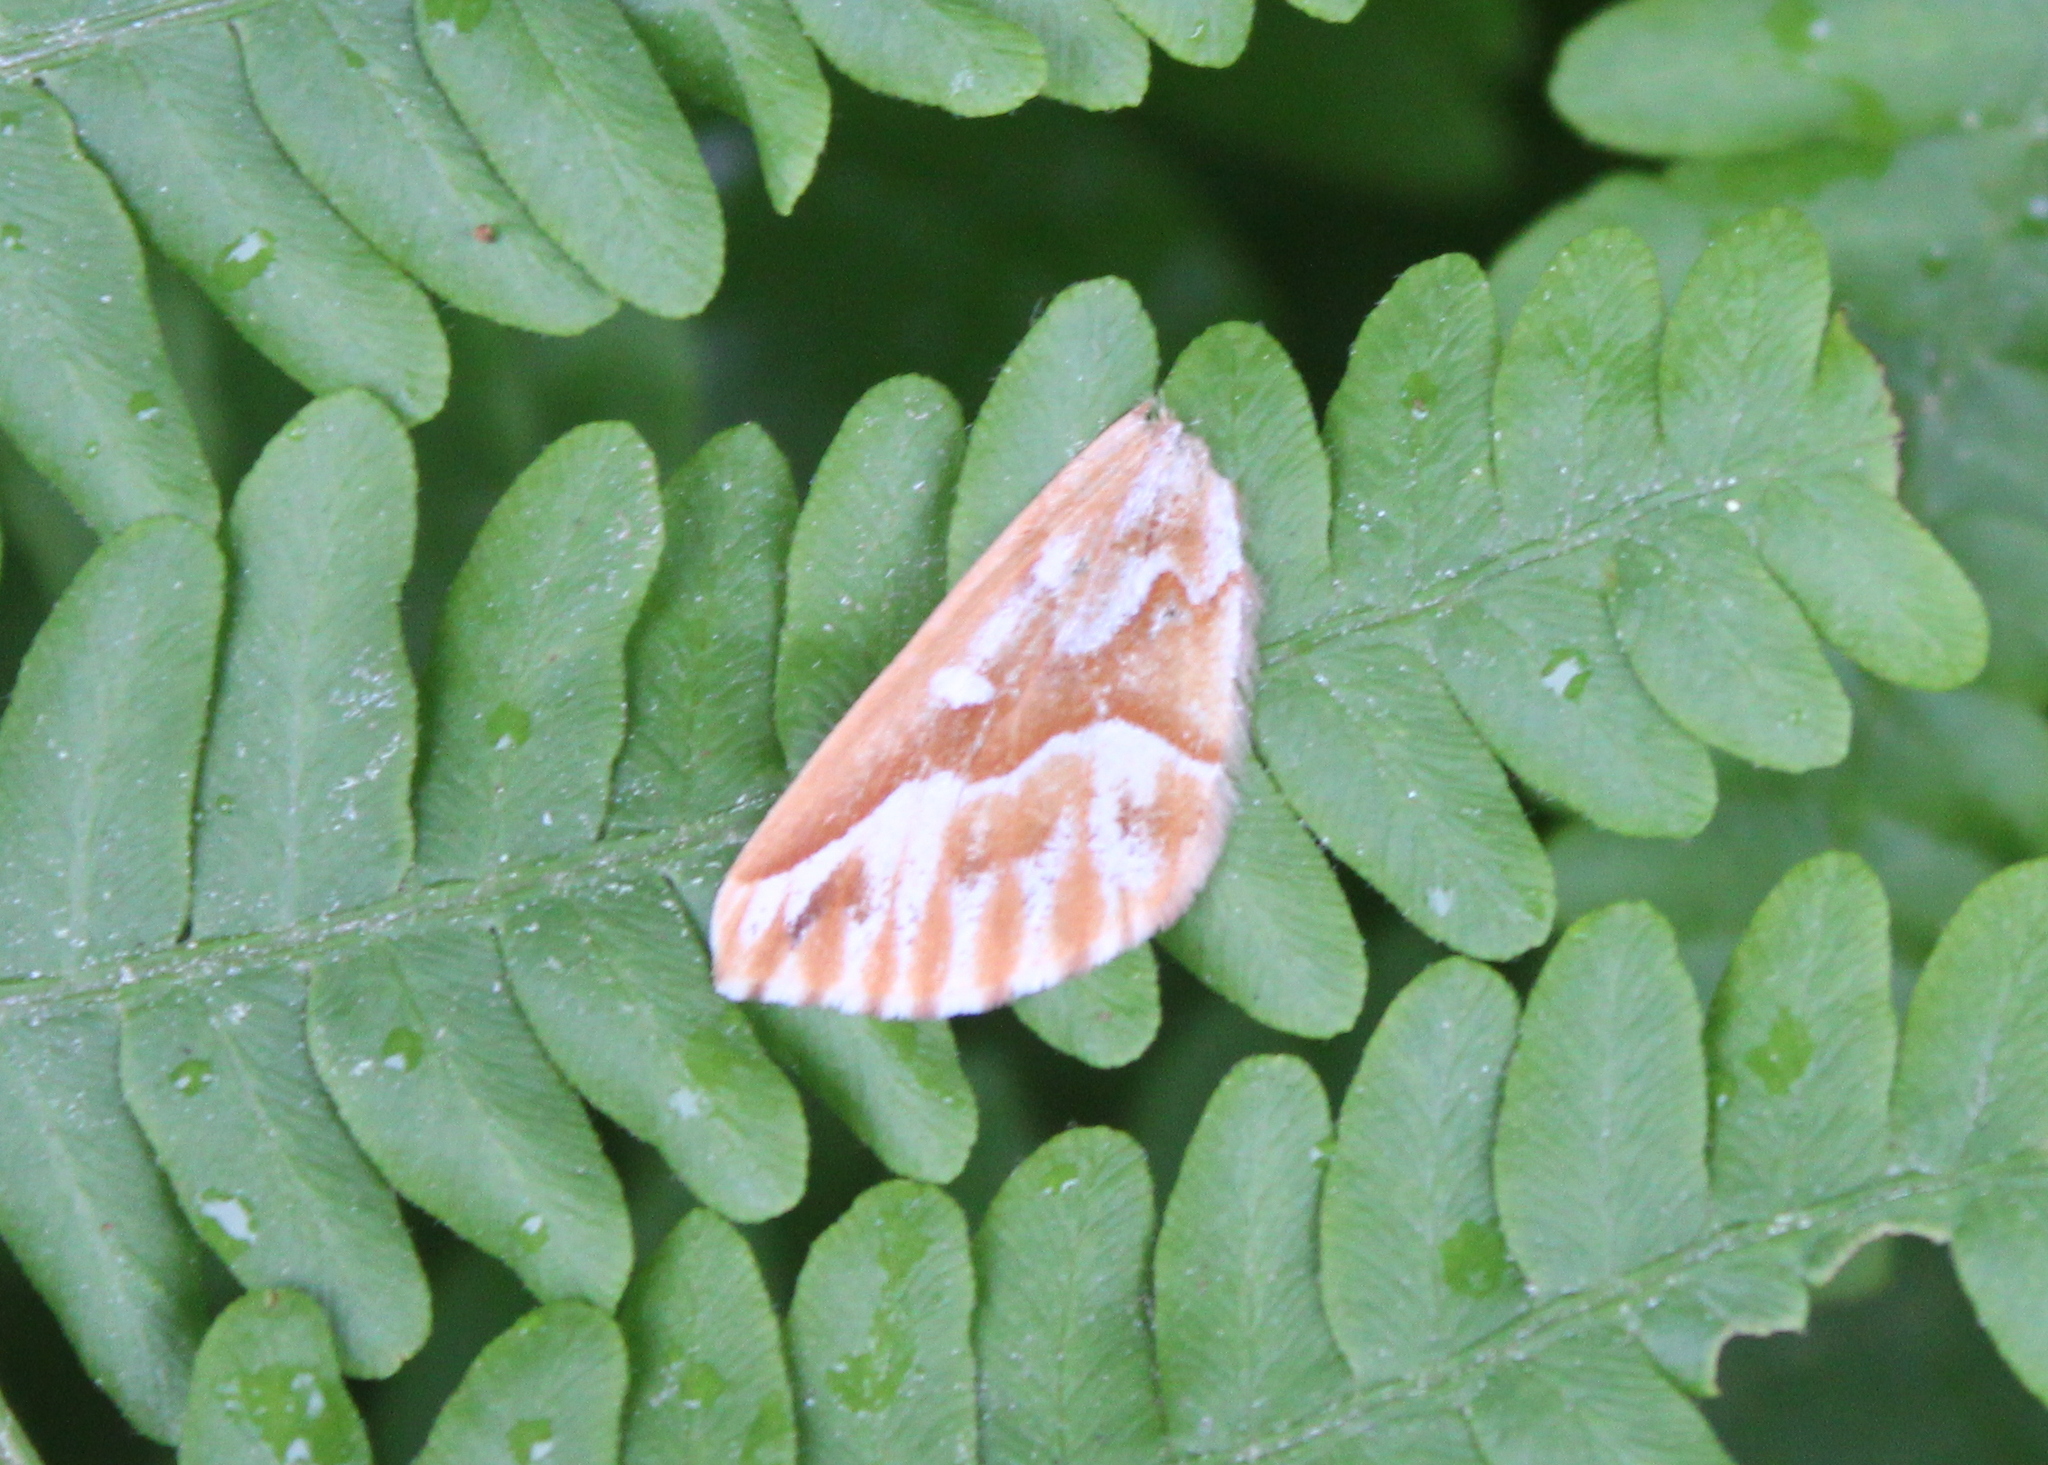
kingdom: Animalia
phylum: Arthropoda
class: Insecta
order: Lepidoptera
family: Geometridae
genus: Caripeta
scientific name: Caripeta piniata
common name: Northern pine looper moth
